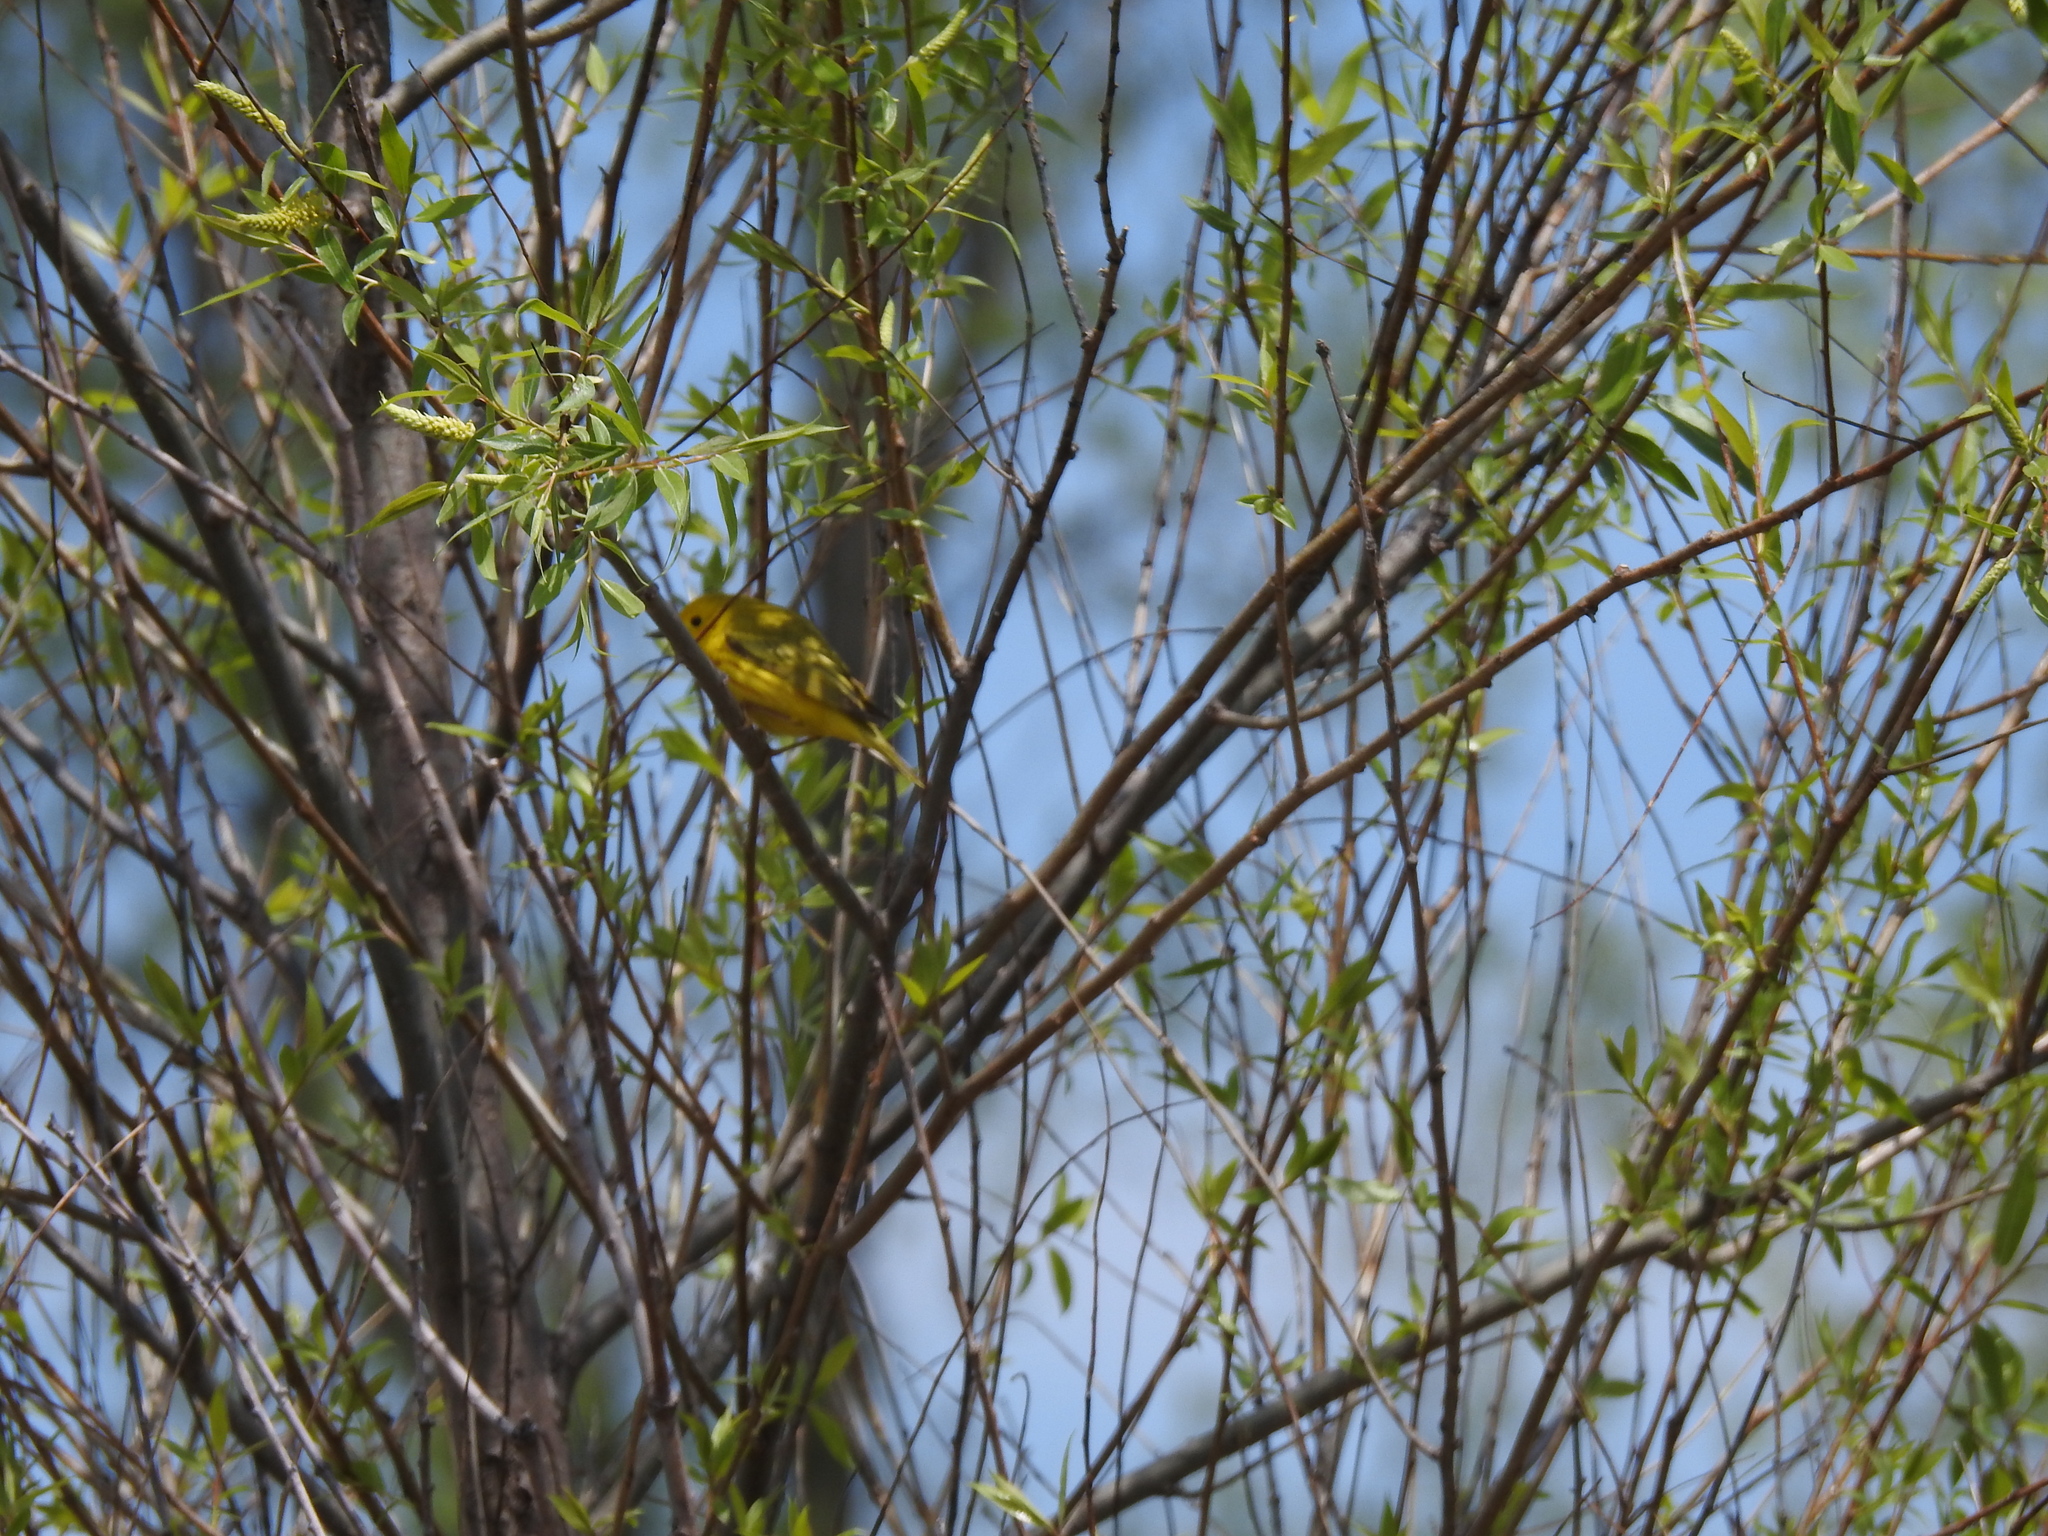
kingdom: Animalia
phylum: Chordata
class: Aves
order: Passeriformes
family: Parulidae
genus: Setophaga
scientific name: Setophaga petechia
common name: Yellow warbler
